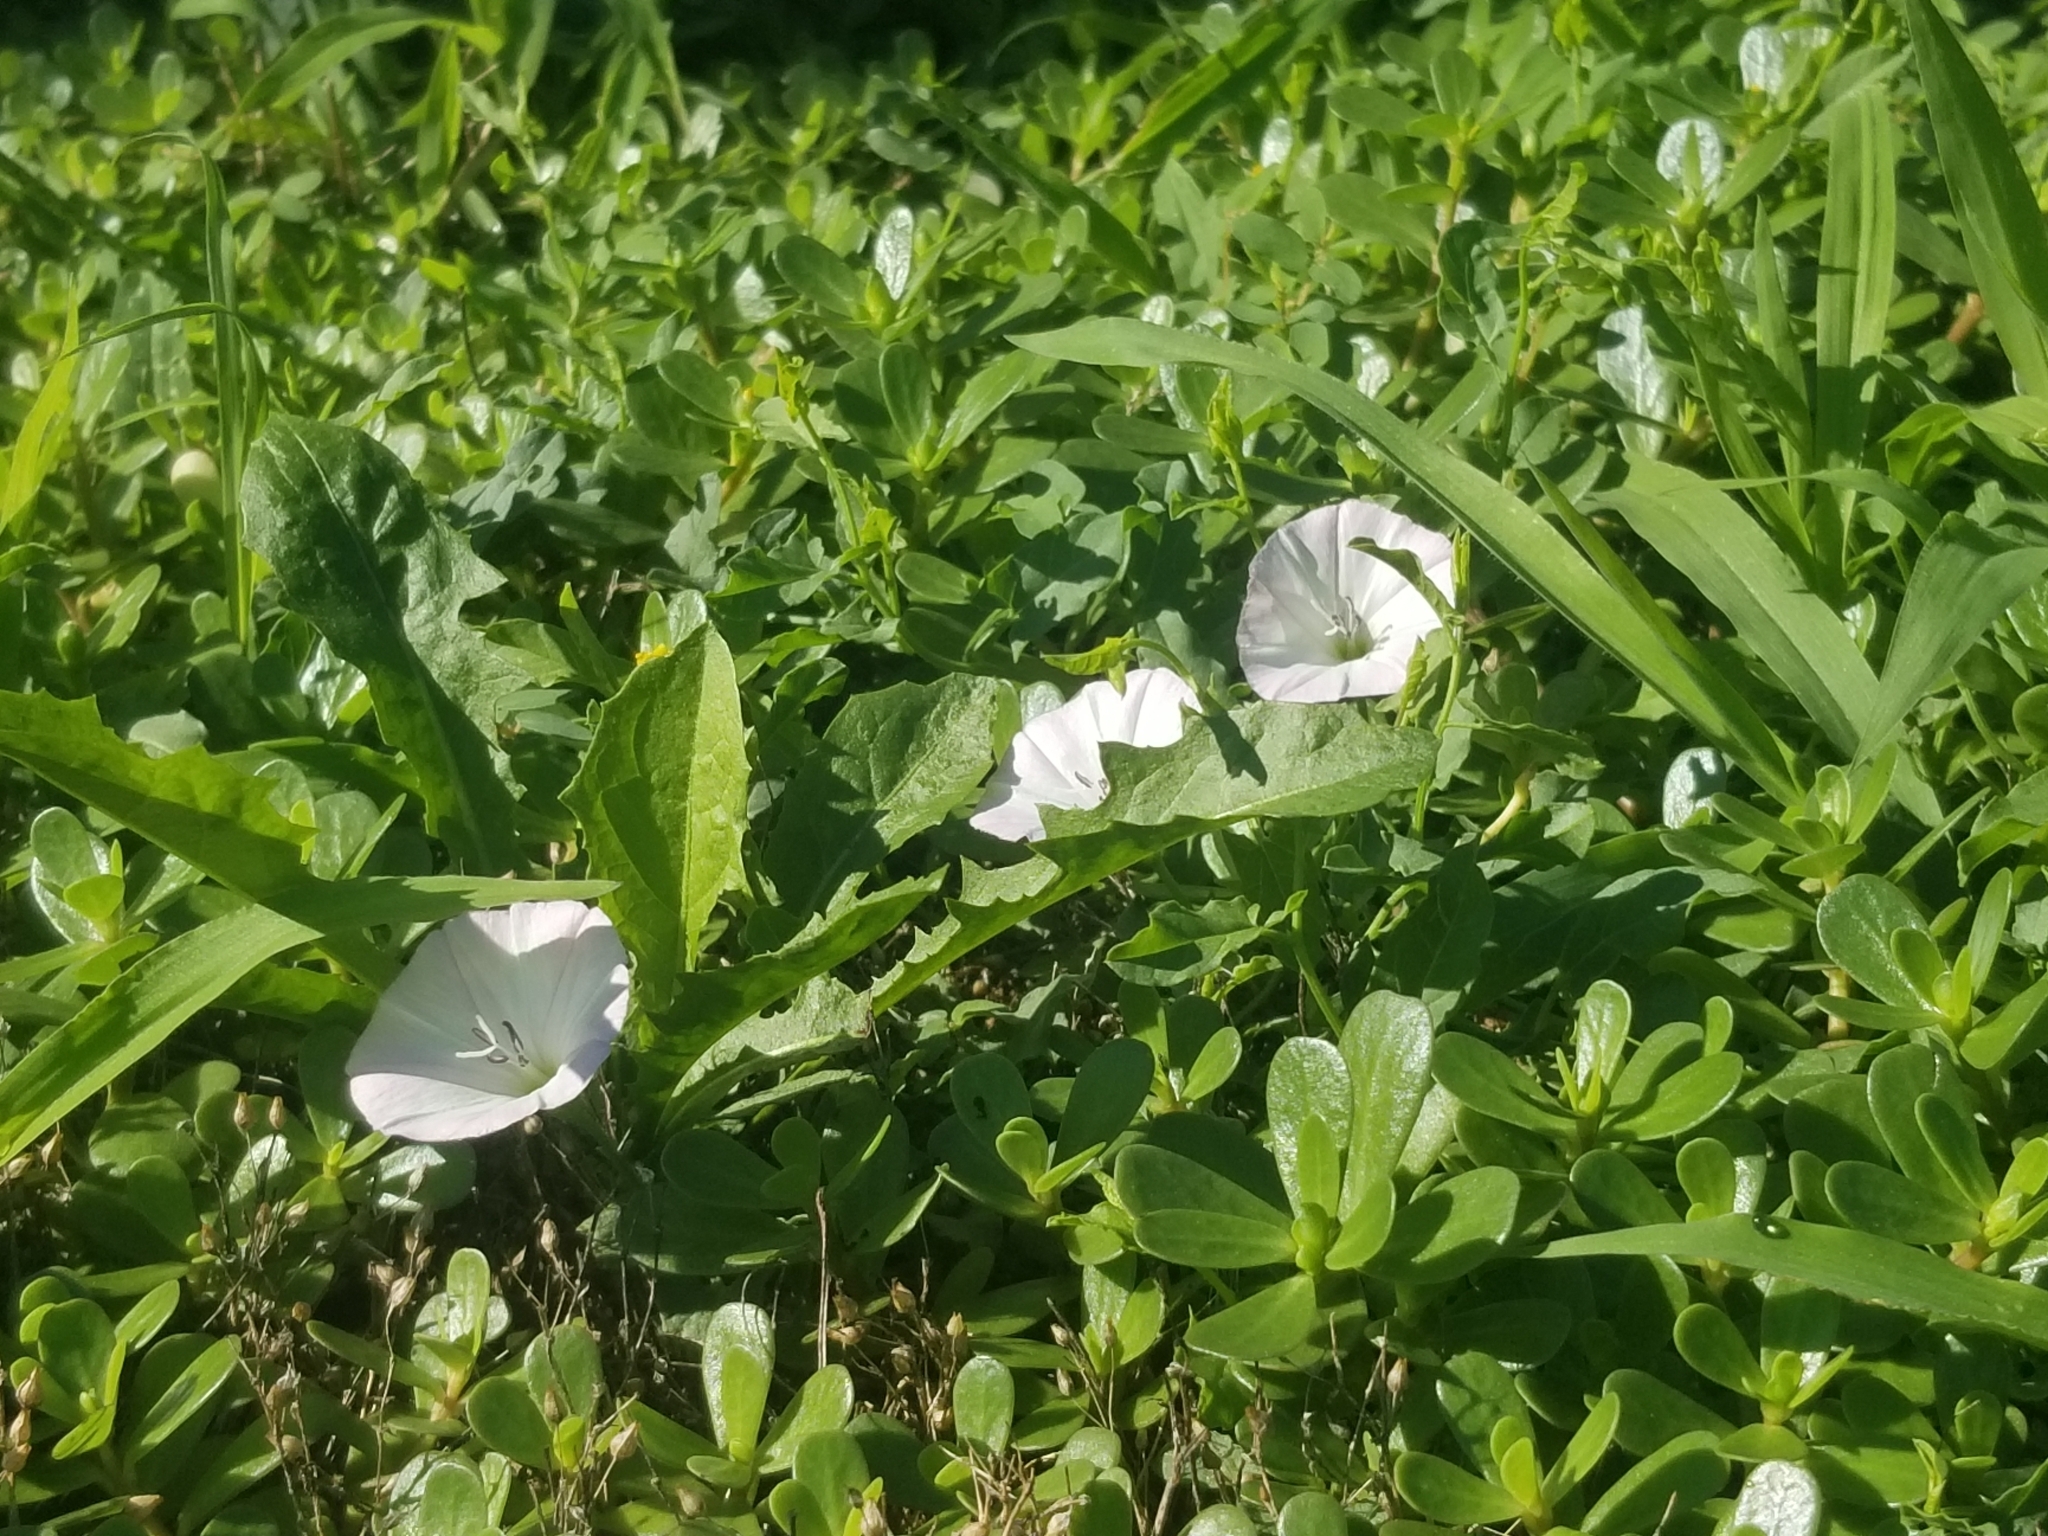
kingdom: Plantae
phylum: Tracheophyta
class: Magnoliopsida
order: Solanales
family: Convolvulaceae
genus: Convolvulus
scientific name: Convolvulus arvensis
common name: Field bindweed
